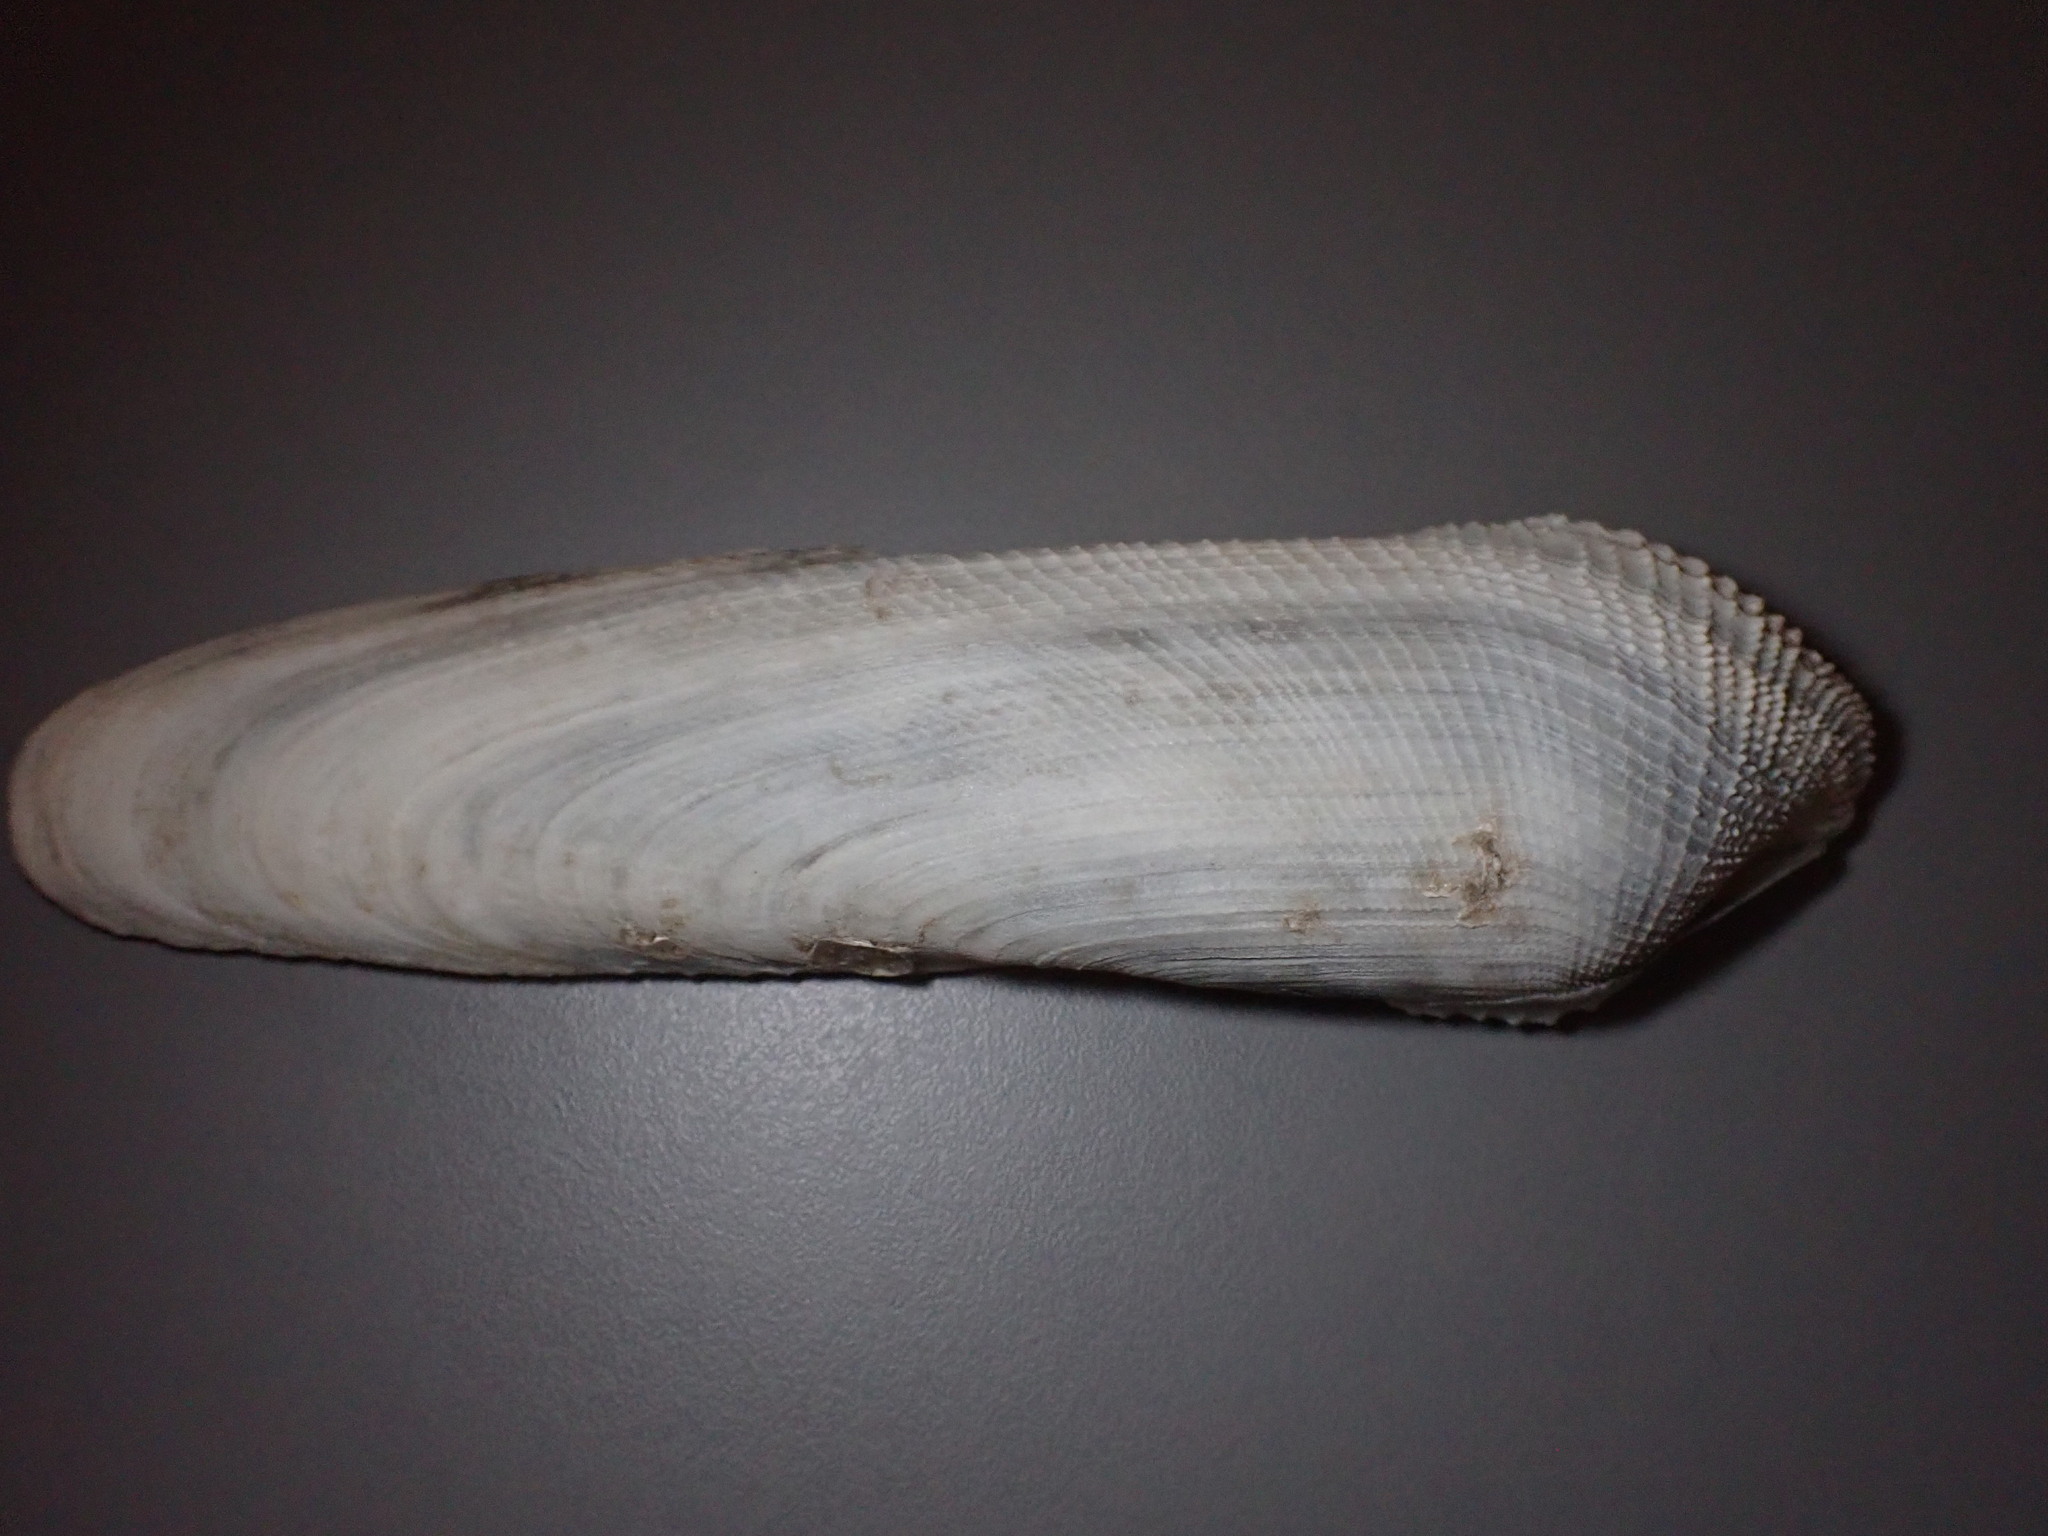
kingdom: Animalia
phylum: Mollusca
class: Bivalvia
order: Myida
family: Pholadidae
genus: Pholas
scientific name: Pholas dactylus
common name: Common piddock
